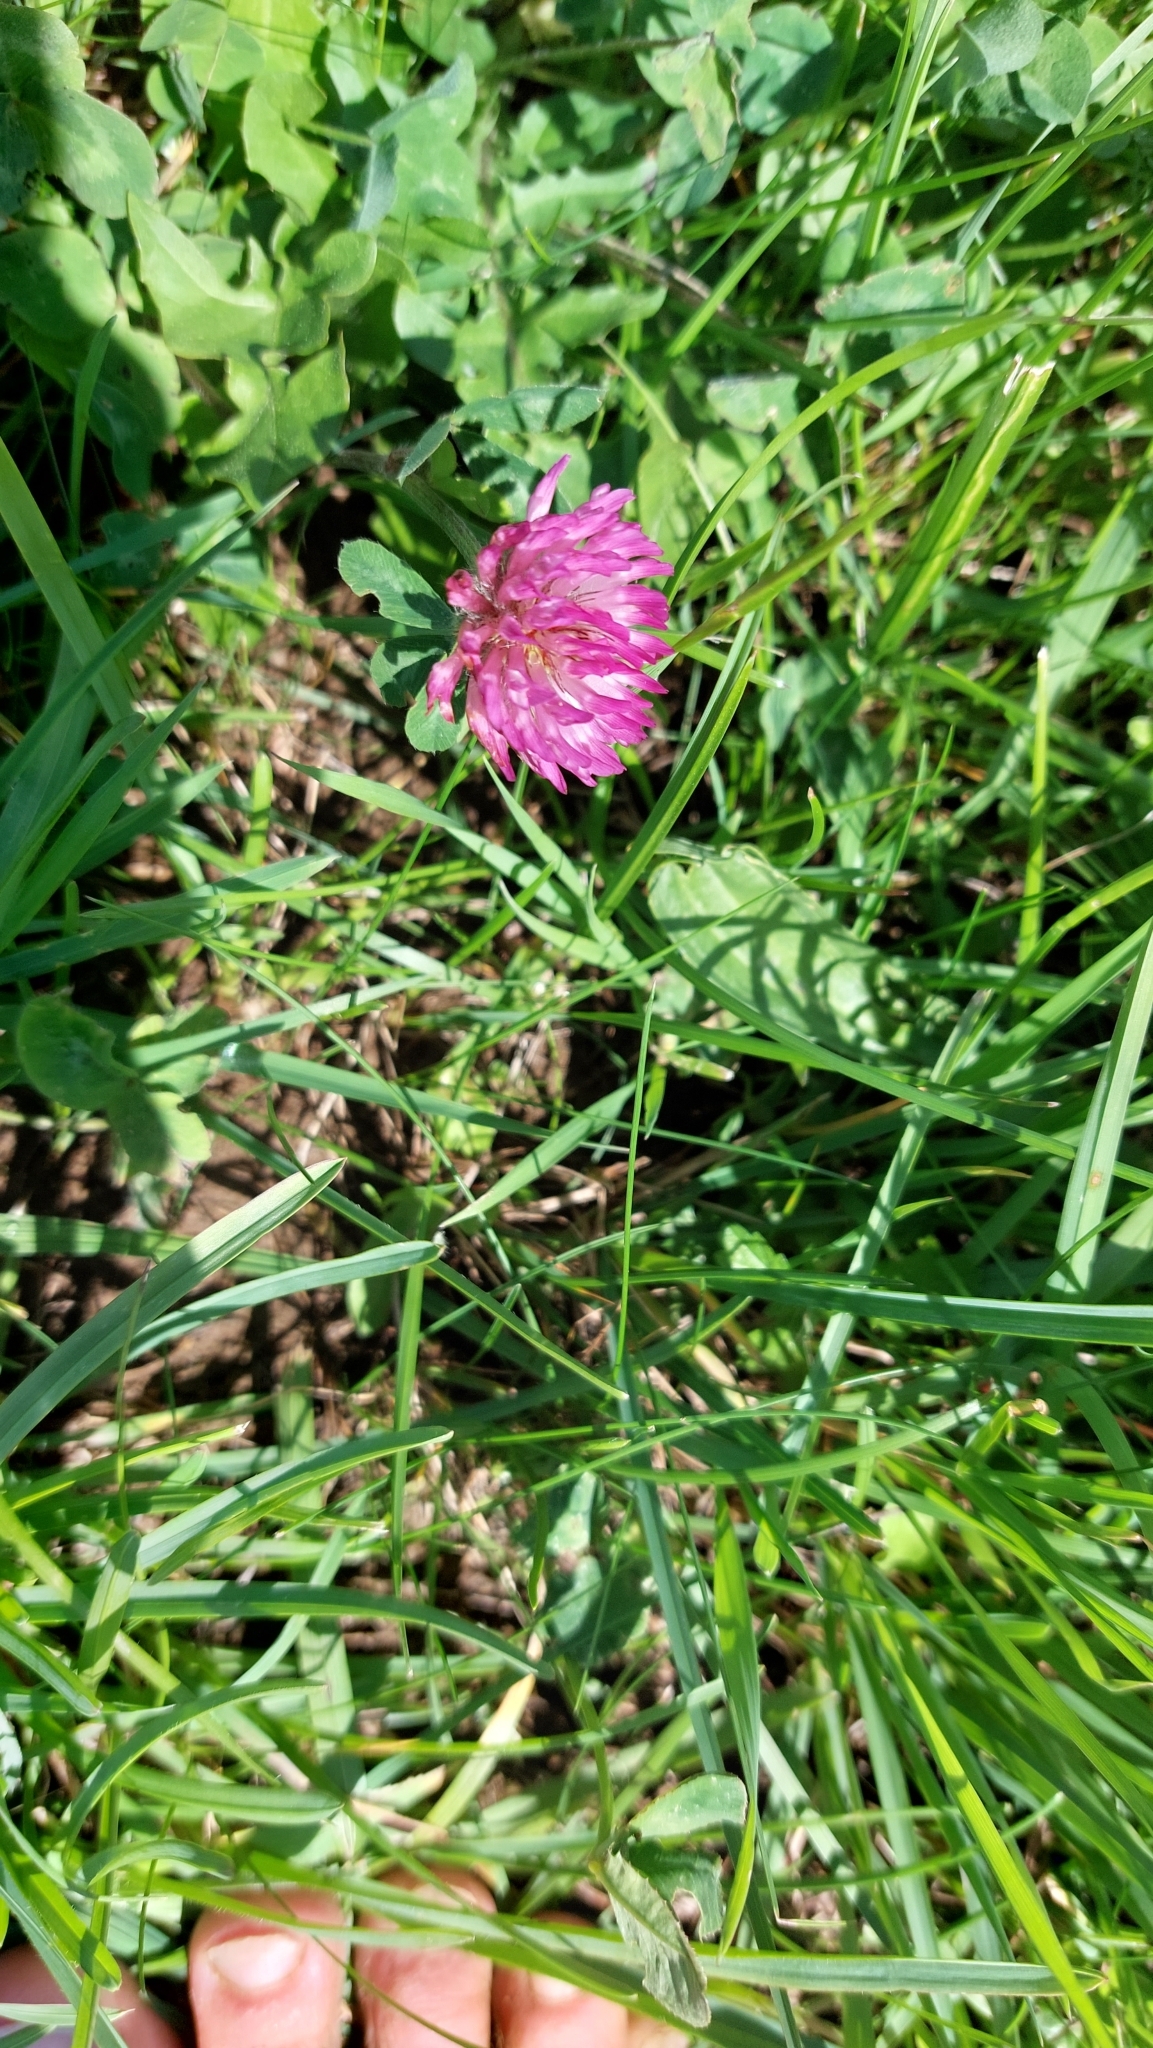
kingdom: Plantae
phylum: Tracheophyta
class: Magnoliopsida
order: Fabales
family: Fabaceae
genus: Trifolium
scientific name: Trifolium pratense
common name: Red clover
